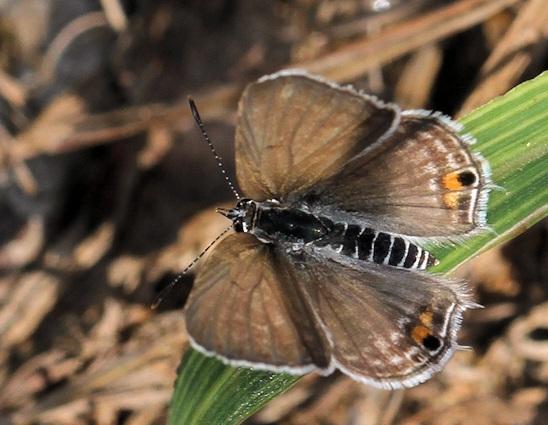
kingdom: Animalia
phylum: Arthropoda
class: Insecta
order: Lepidoptera
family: Lycaenidae
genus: Anthene
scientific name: Anthene amarah
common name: Black-striped hairtail
